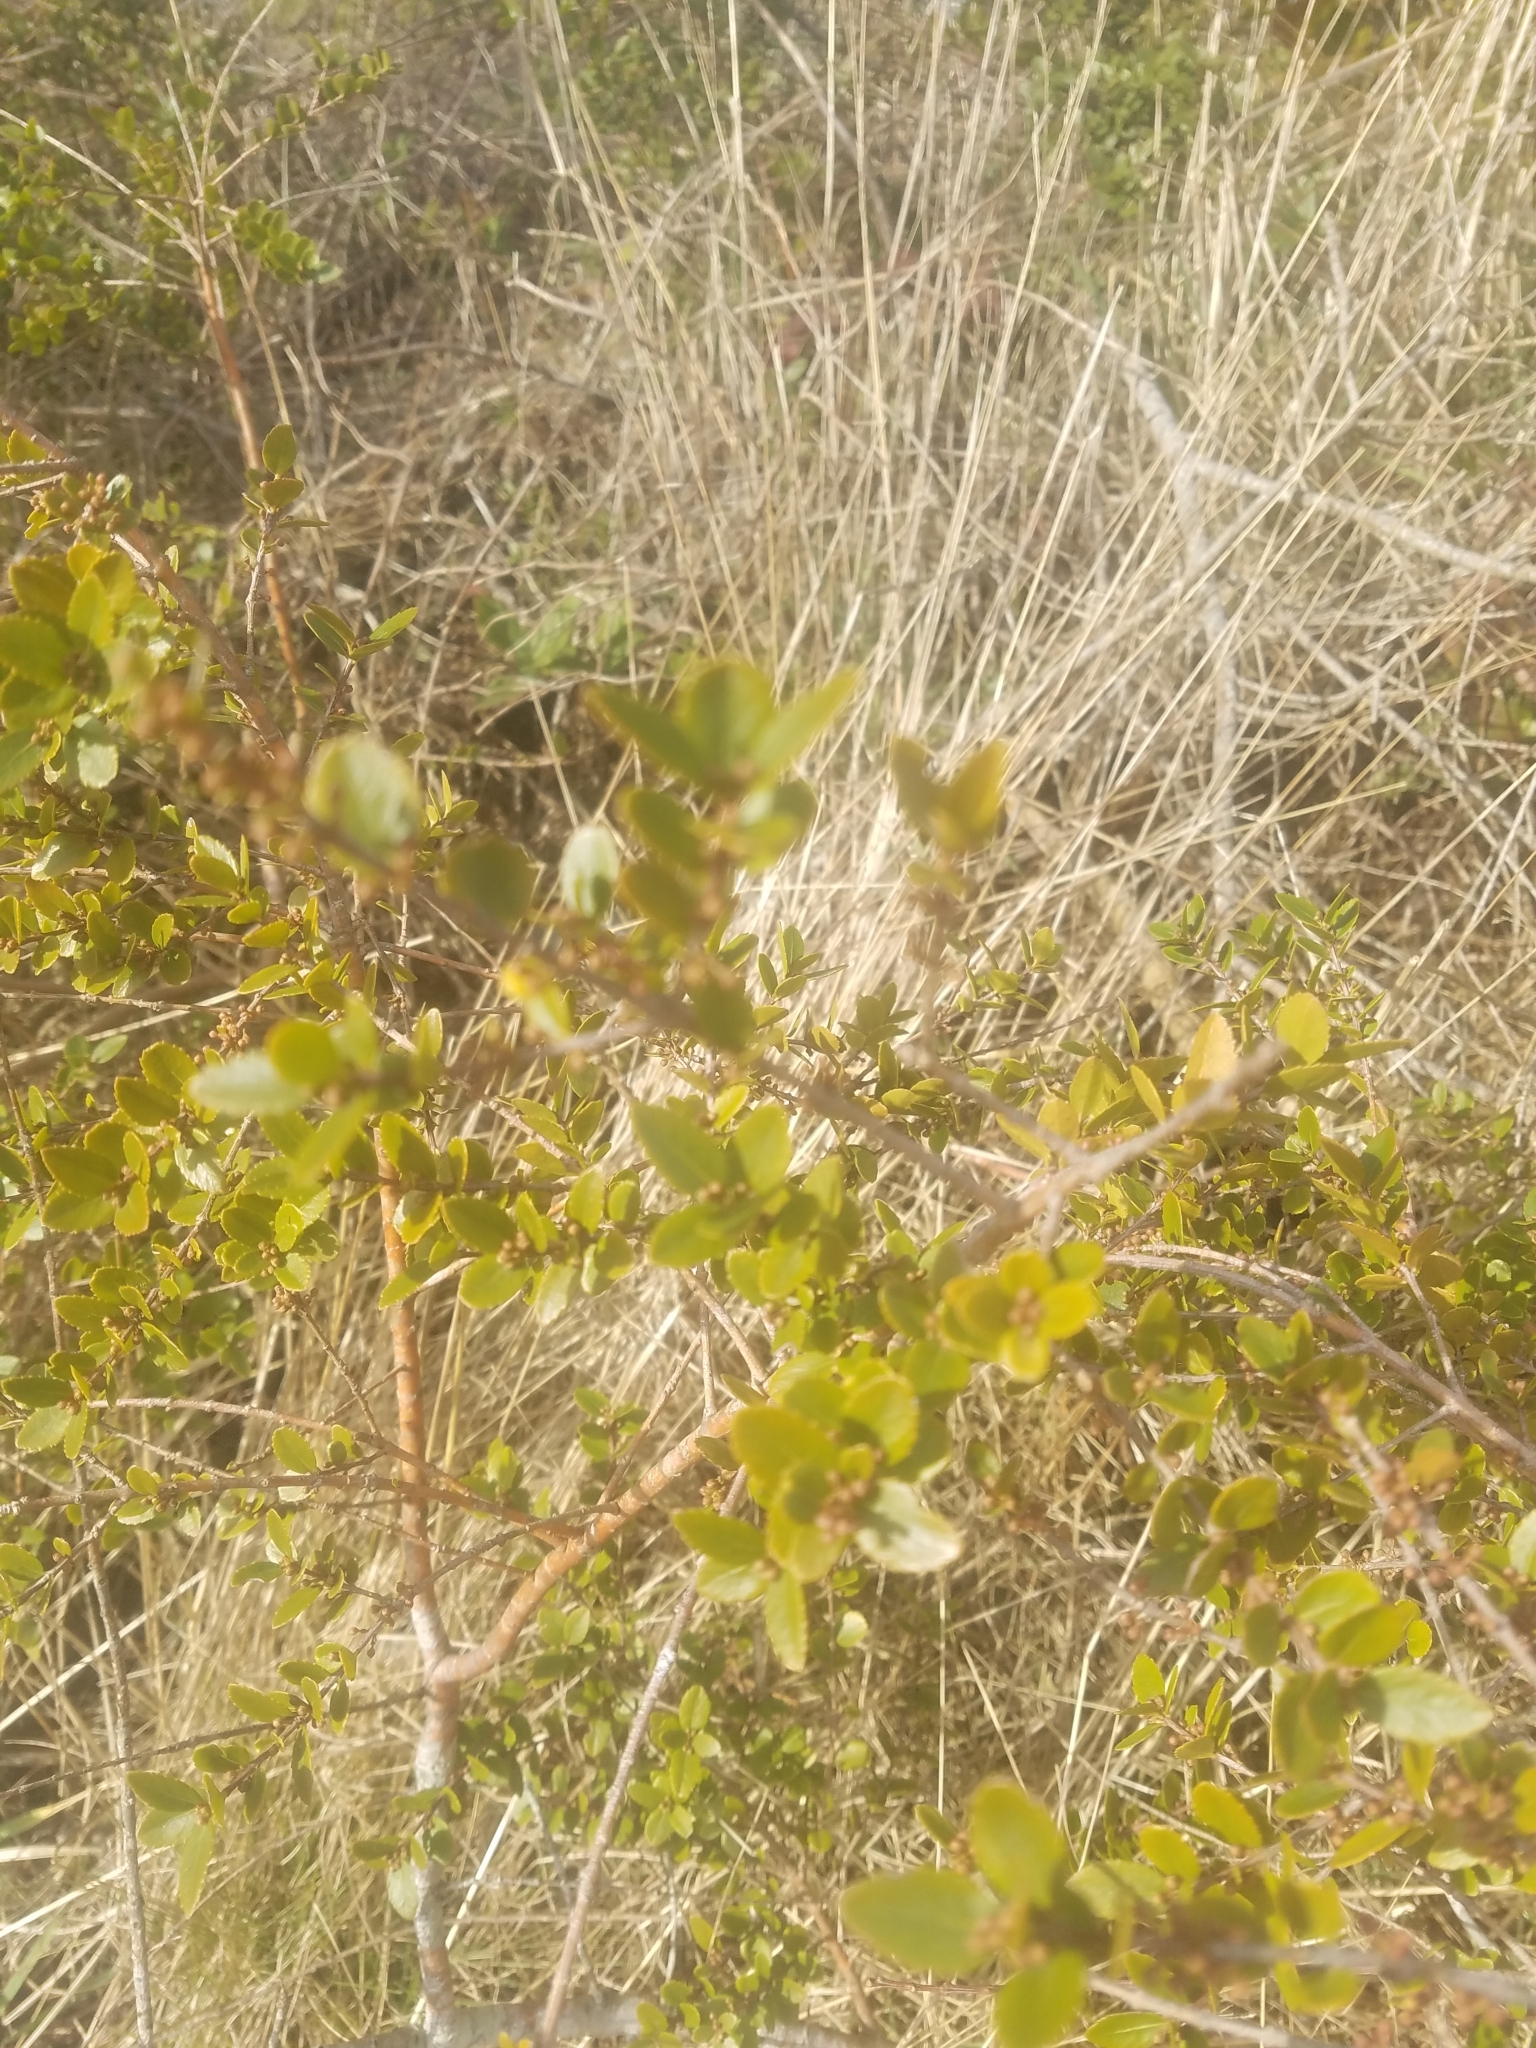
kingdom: Plantae
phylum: Tracheophyta
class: Magnoliopsida
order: Celastrales
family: Celastraceae
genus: Paxistima
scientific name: Paxistima myrsinites
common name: Mountain-lover
